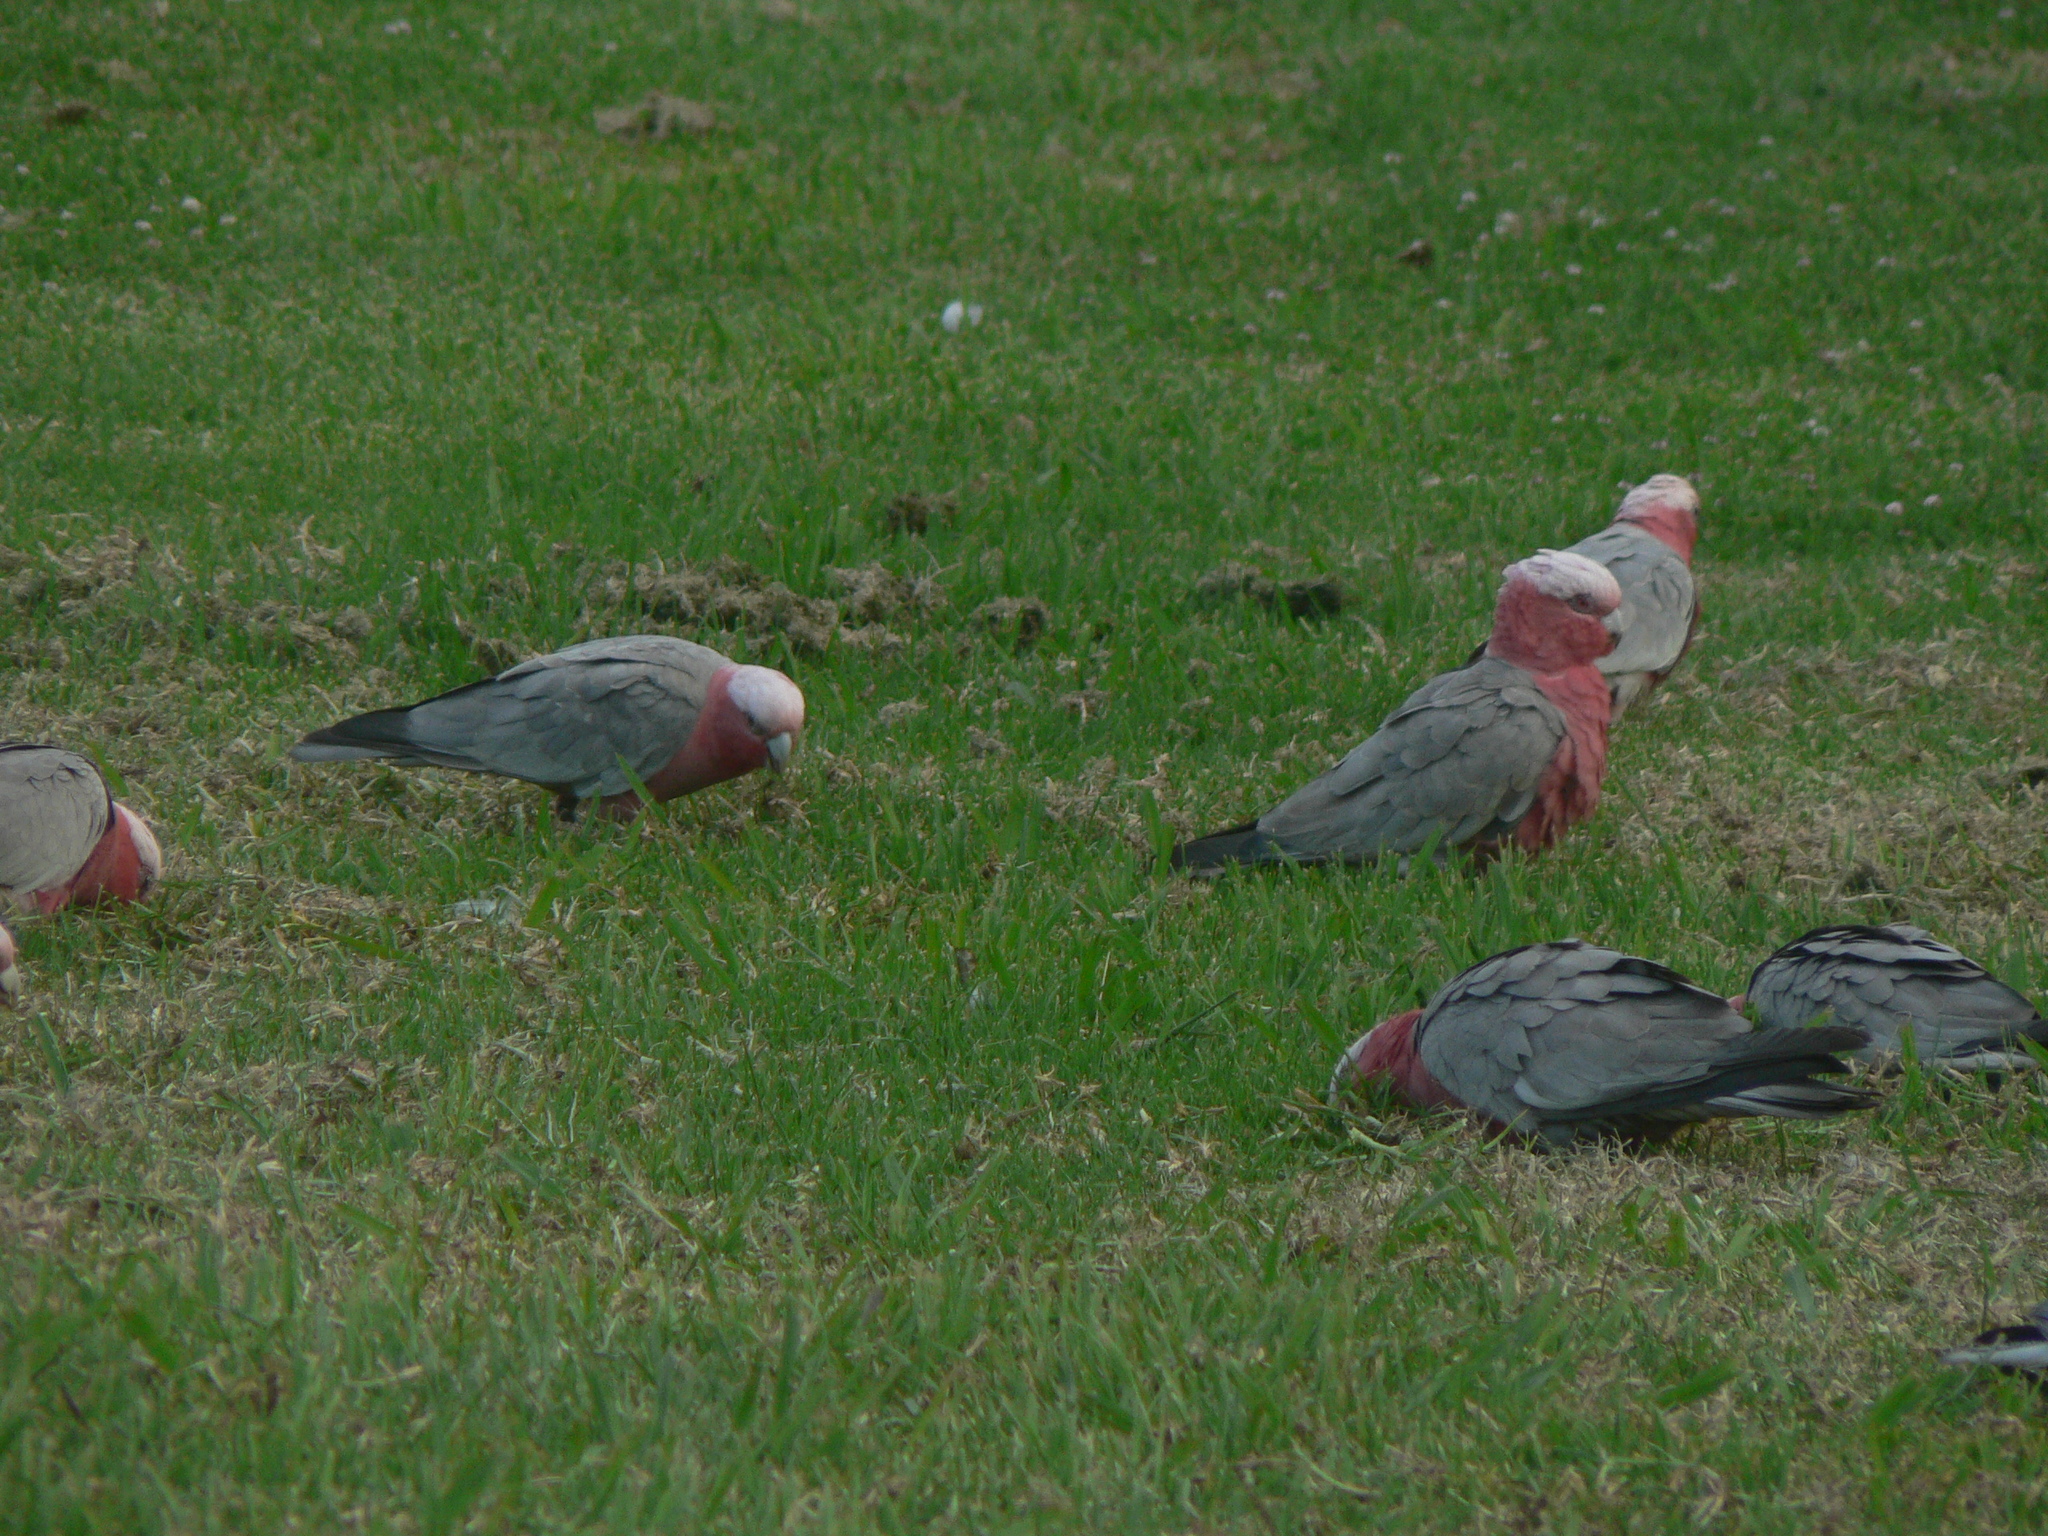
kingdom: Animalia
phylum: Chordata
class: Aves
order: Psittaciformes
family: Psittacidae
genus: Eolophus
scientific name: Eolophus roseicapilla
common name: Galah
